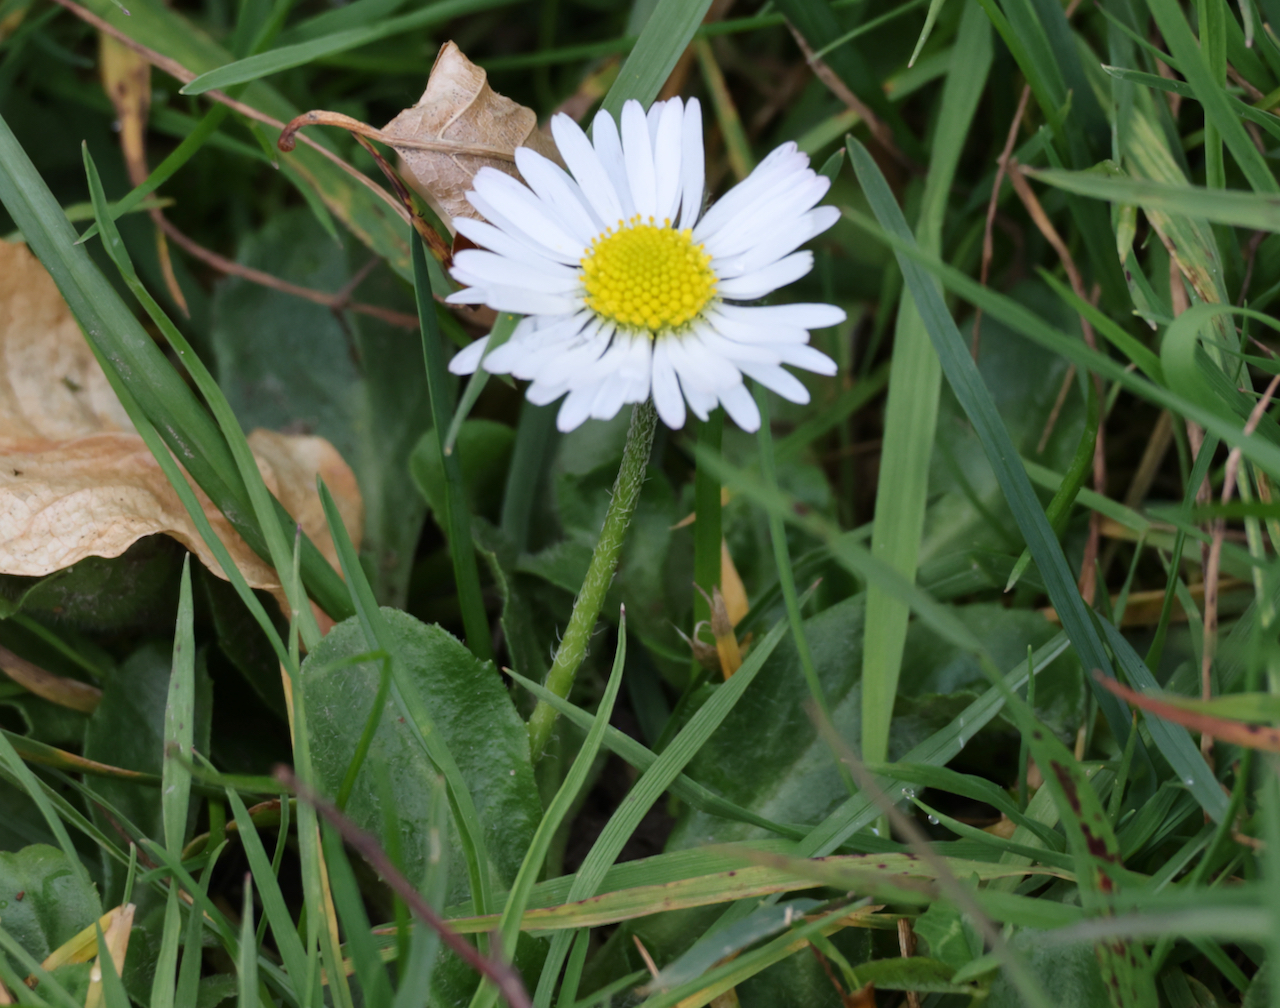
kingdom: Plantae
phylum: Tracheophyta
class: Magnoliopsida
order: Asterales
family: Asteraceae
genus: Bellis
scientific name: Bellis perennis
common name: Lawndaisy
